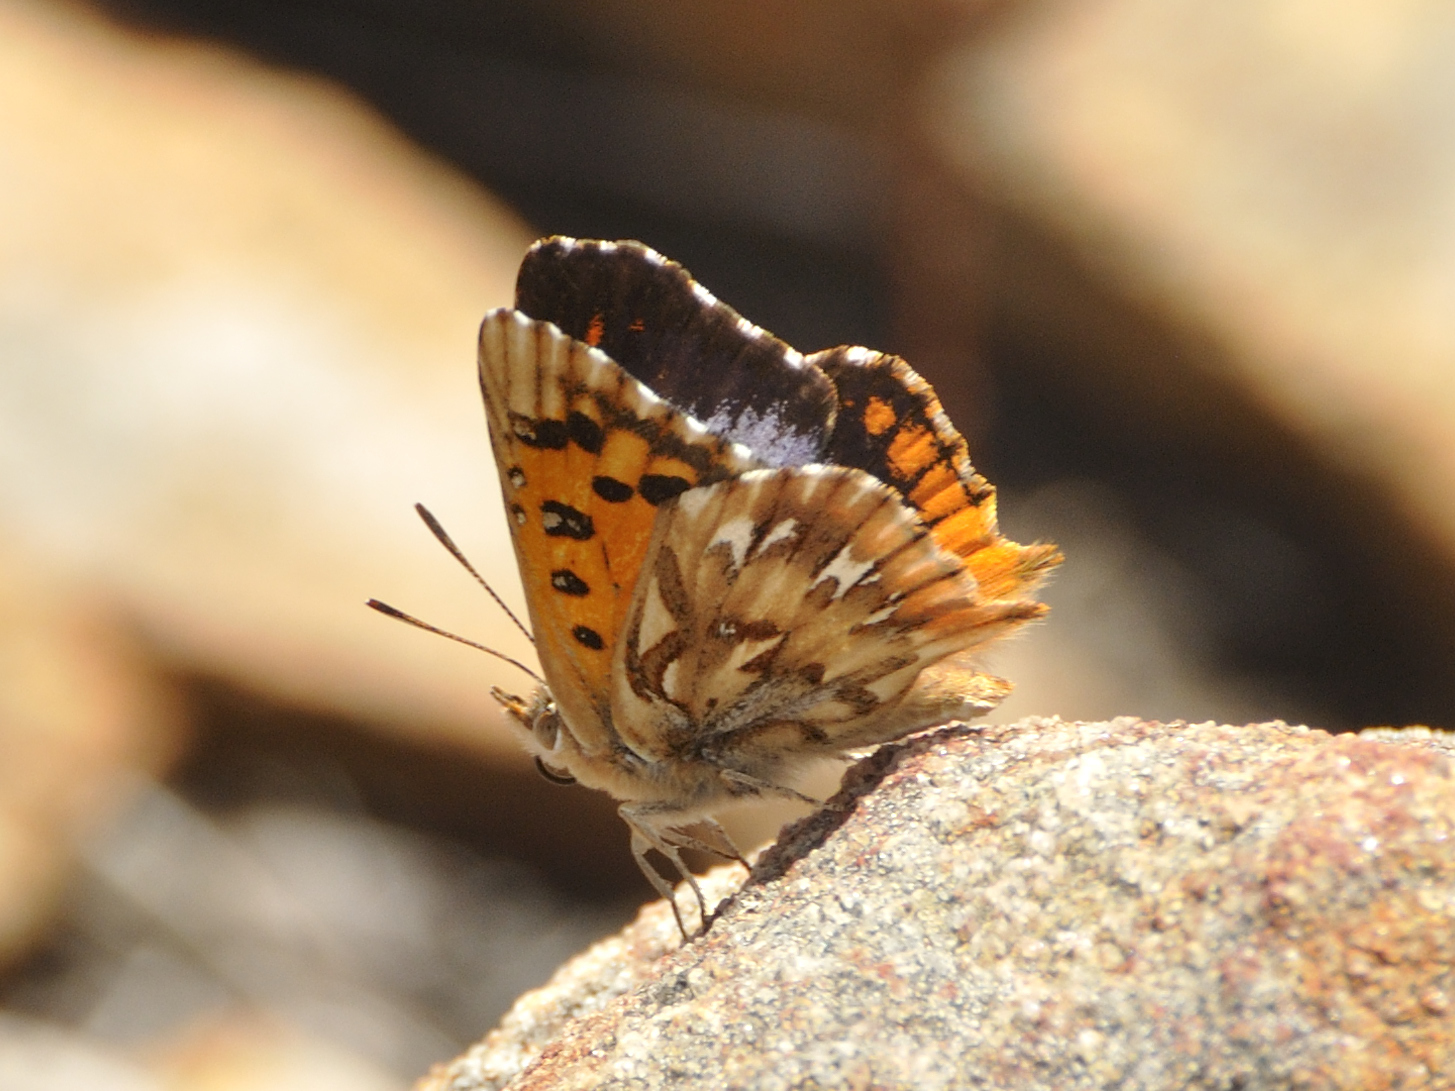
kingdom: Animalia
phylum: Arthropoda
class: Insecta
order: Lepidoptera
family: Lycaenidae
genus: Chrysoritis
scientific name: Chrysoritis
